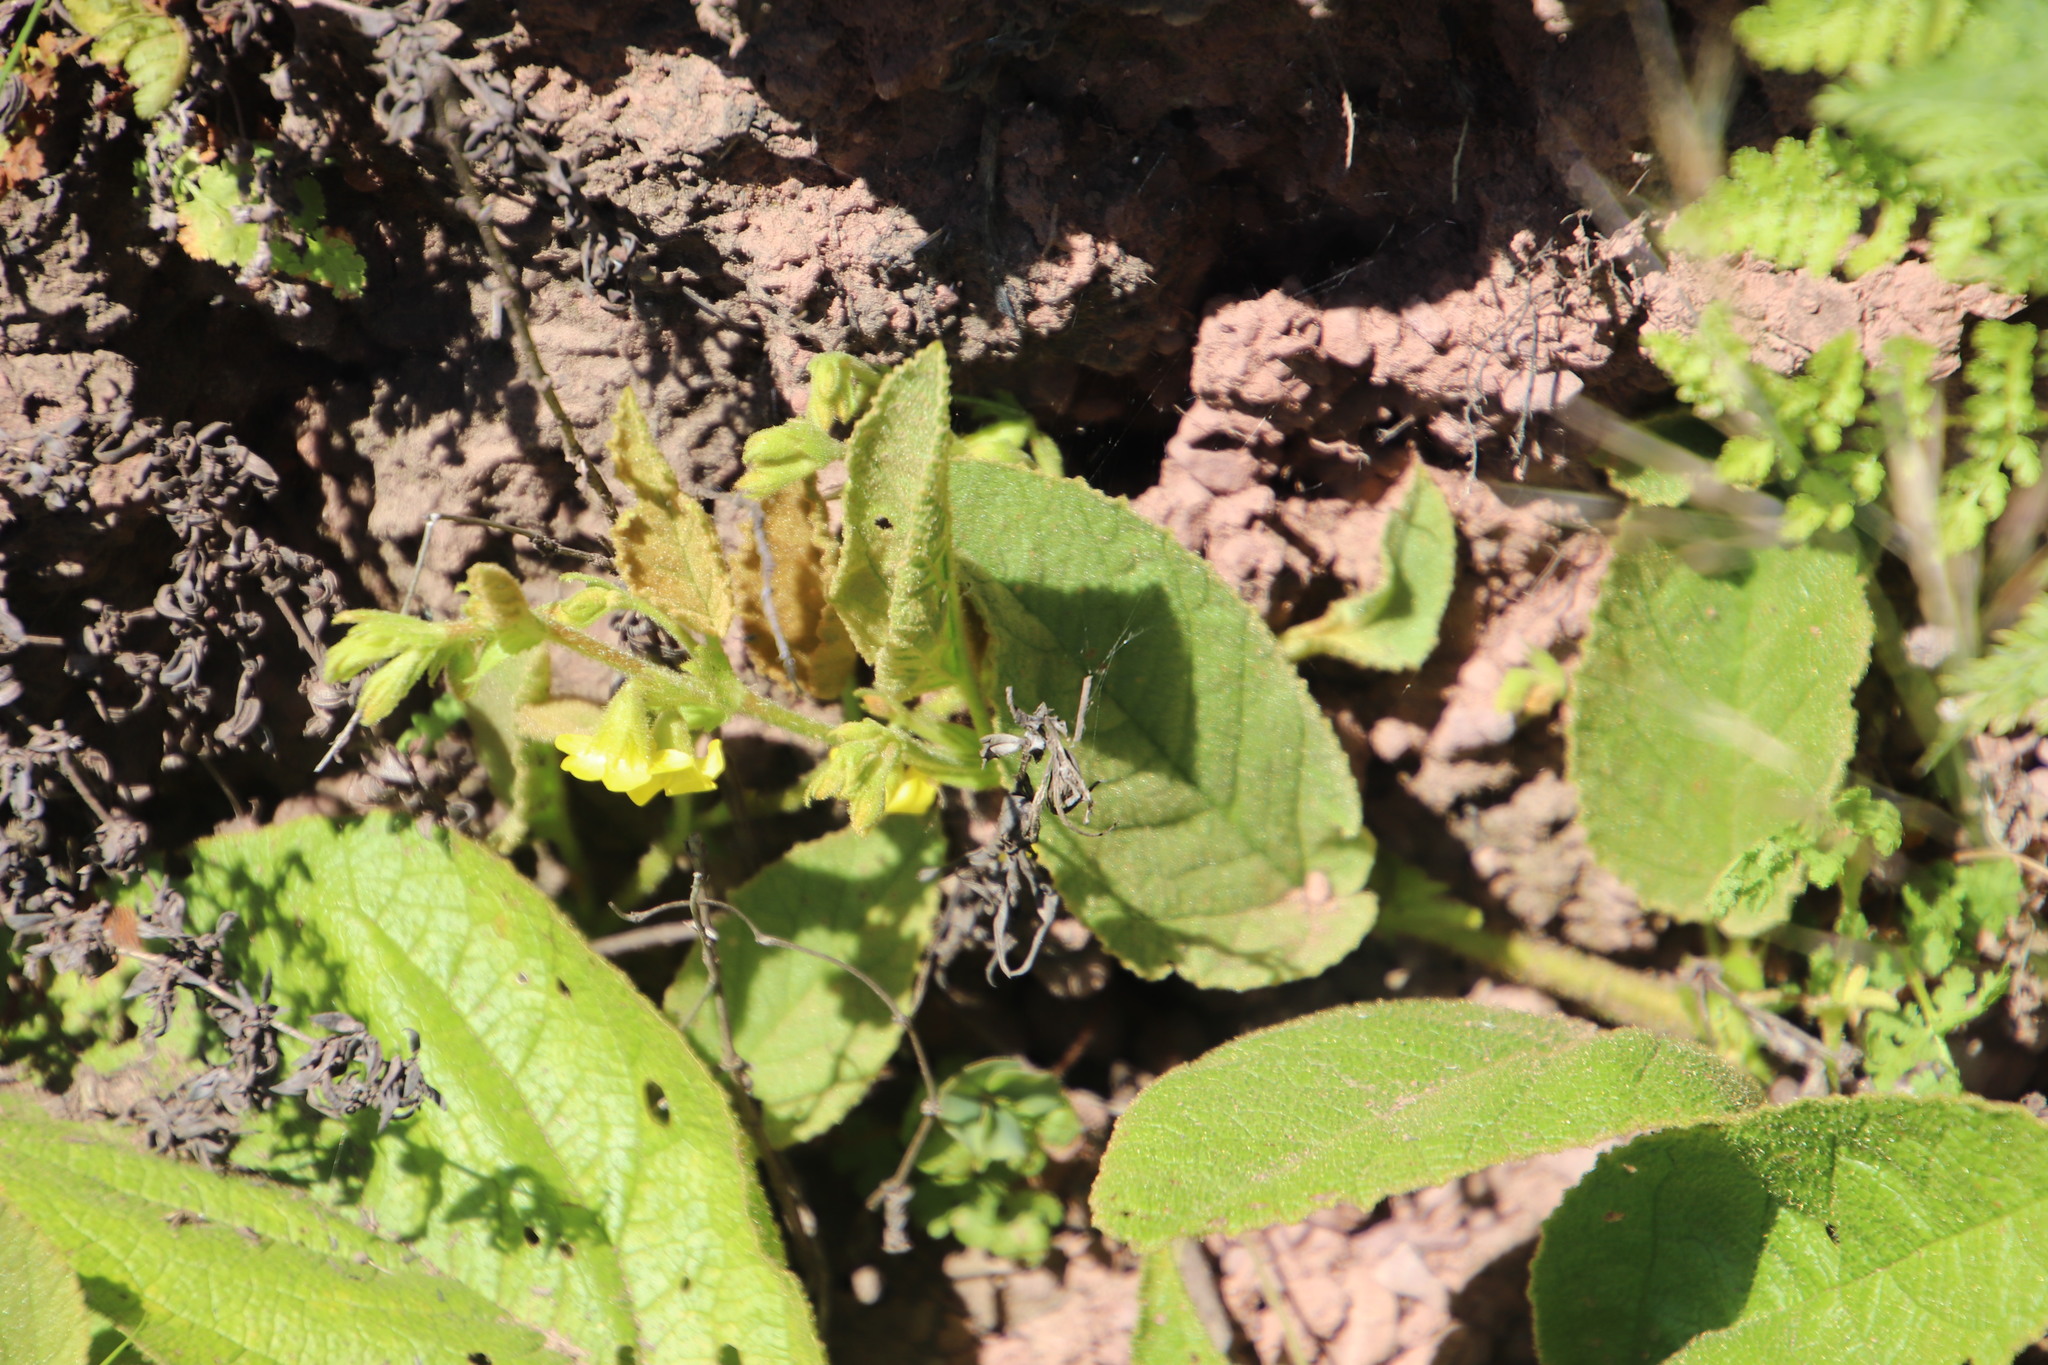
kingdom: Plantae
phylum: Tracheophyta
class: Magnoliopsida
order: Malvales
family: Malvaceae
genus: Hermannia
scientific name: Hermannia gerardii
